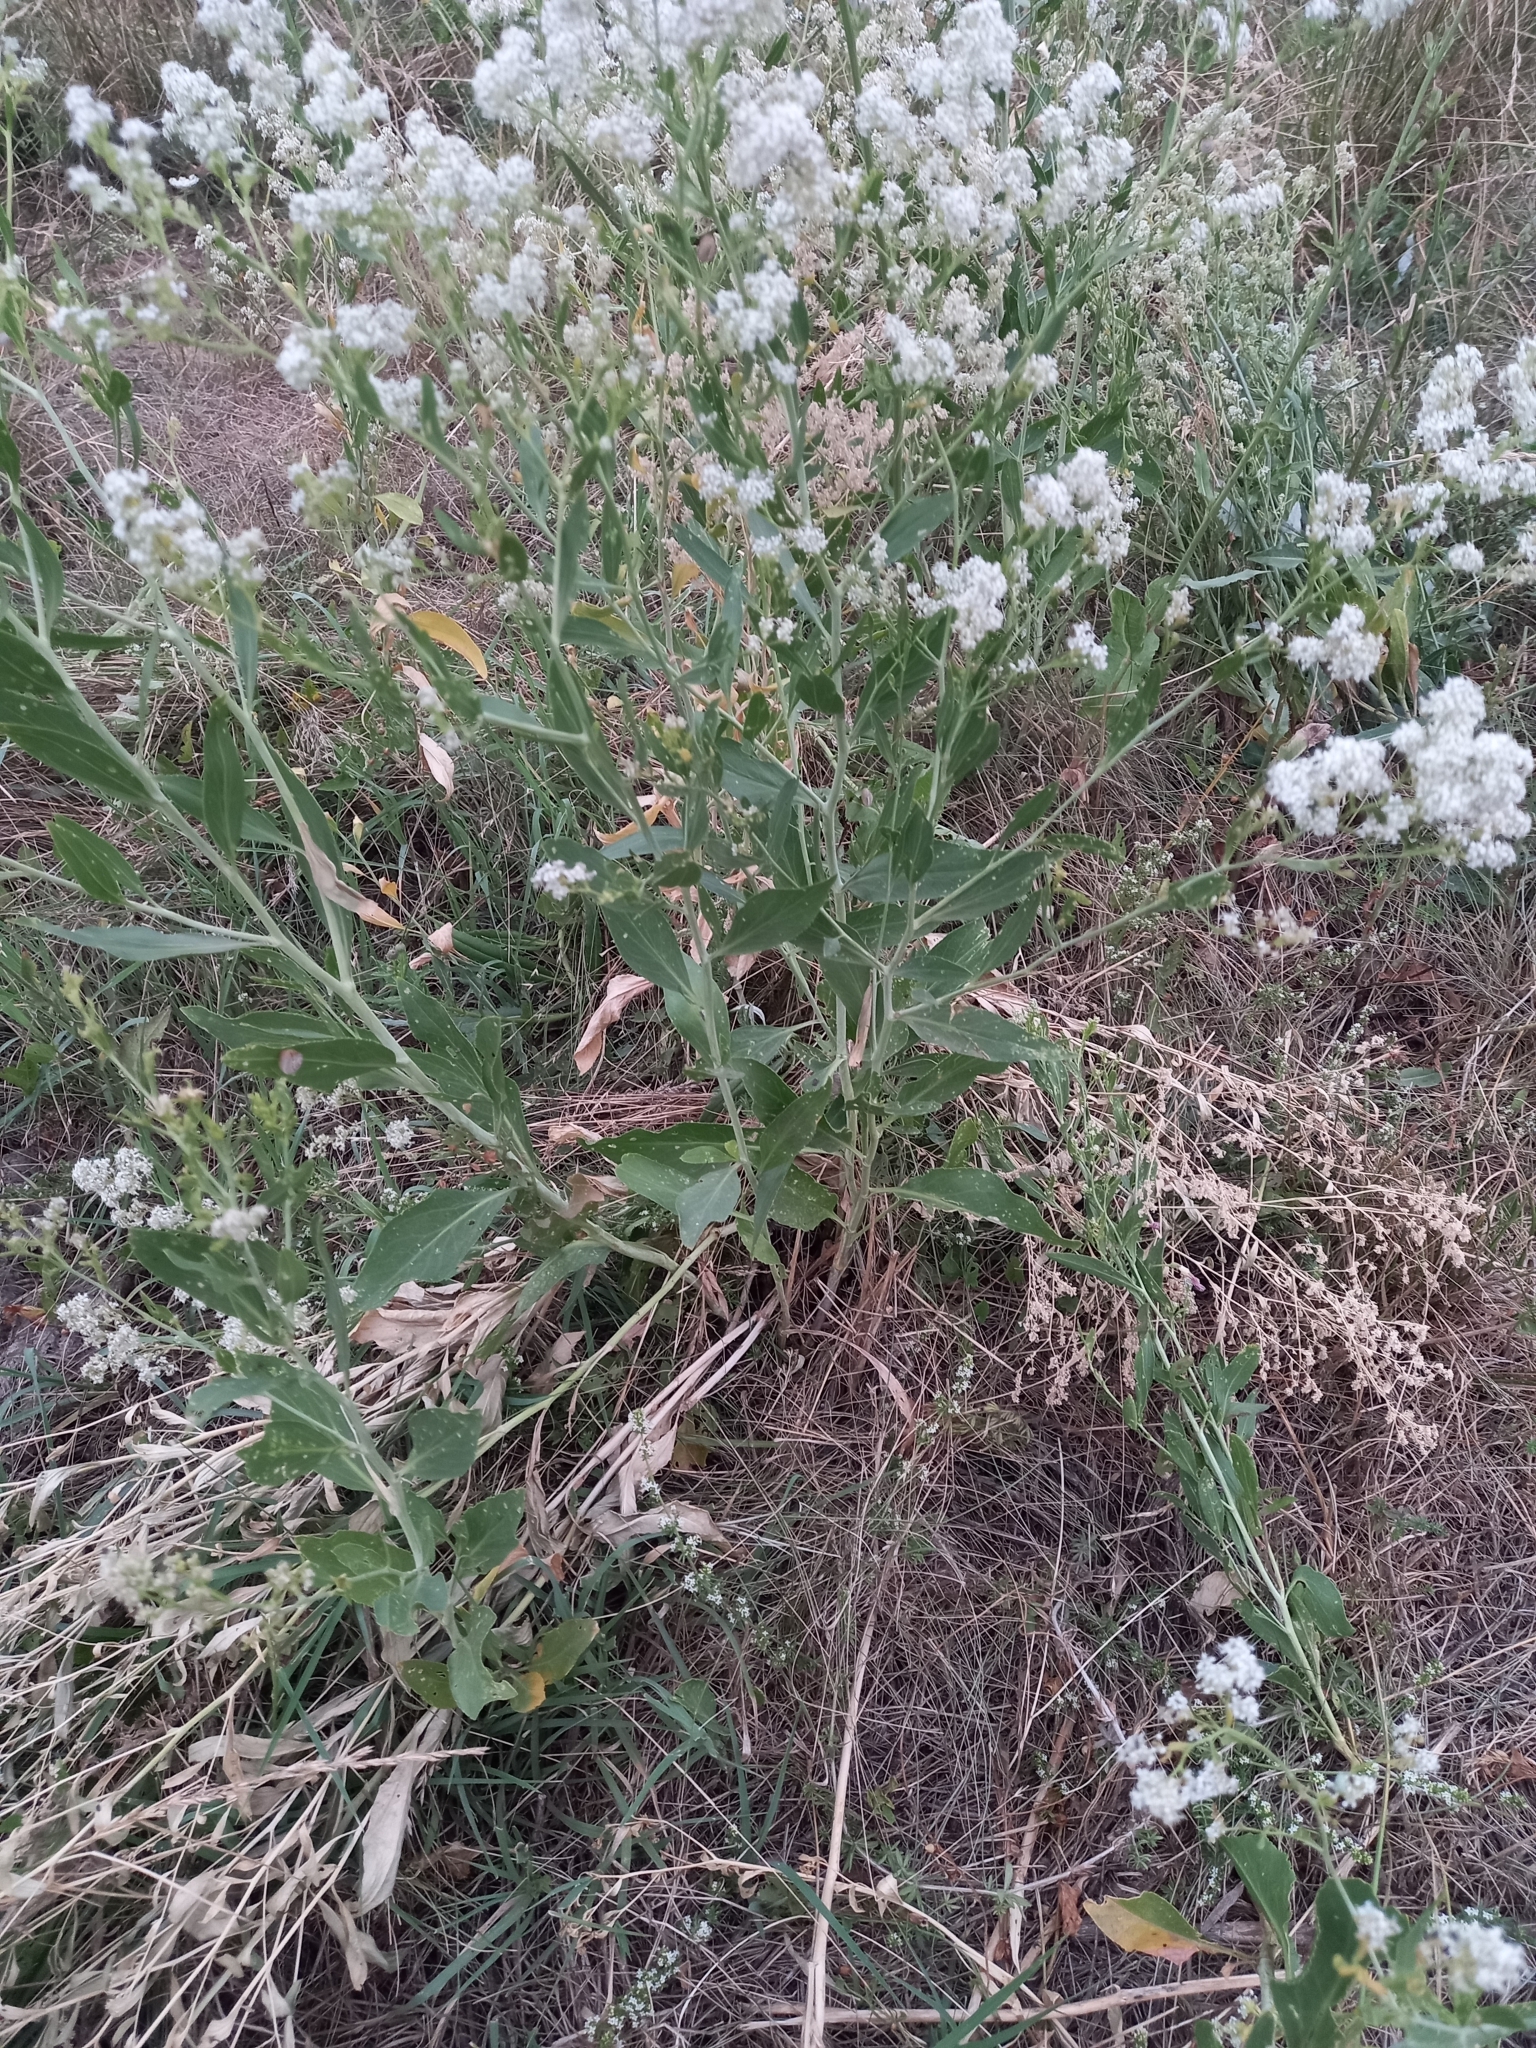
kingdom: Plantae
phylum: Tracheophyta
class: Magnoliopsida
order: Brassicales
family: Brassicaceae
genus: Lepidium
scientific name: Lepidium latifolium
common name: Dittander
